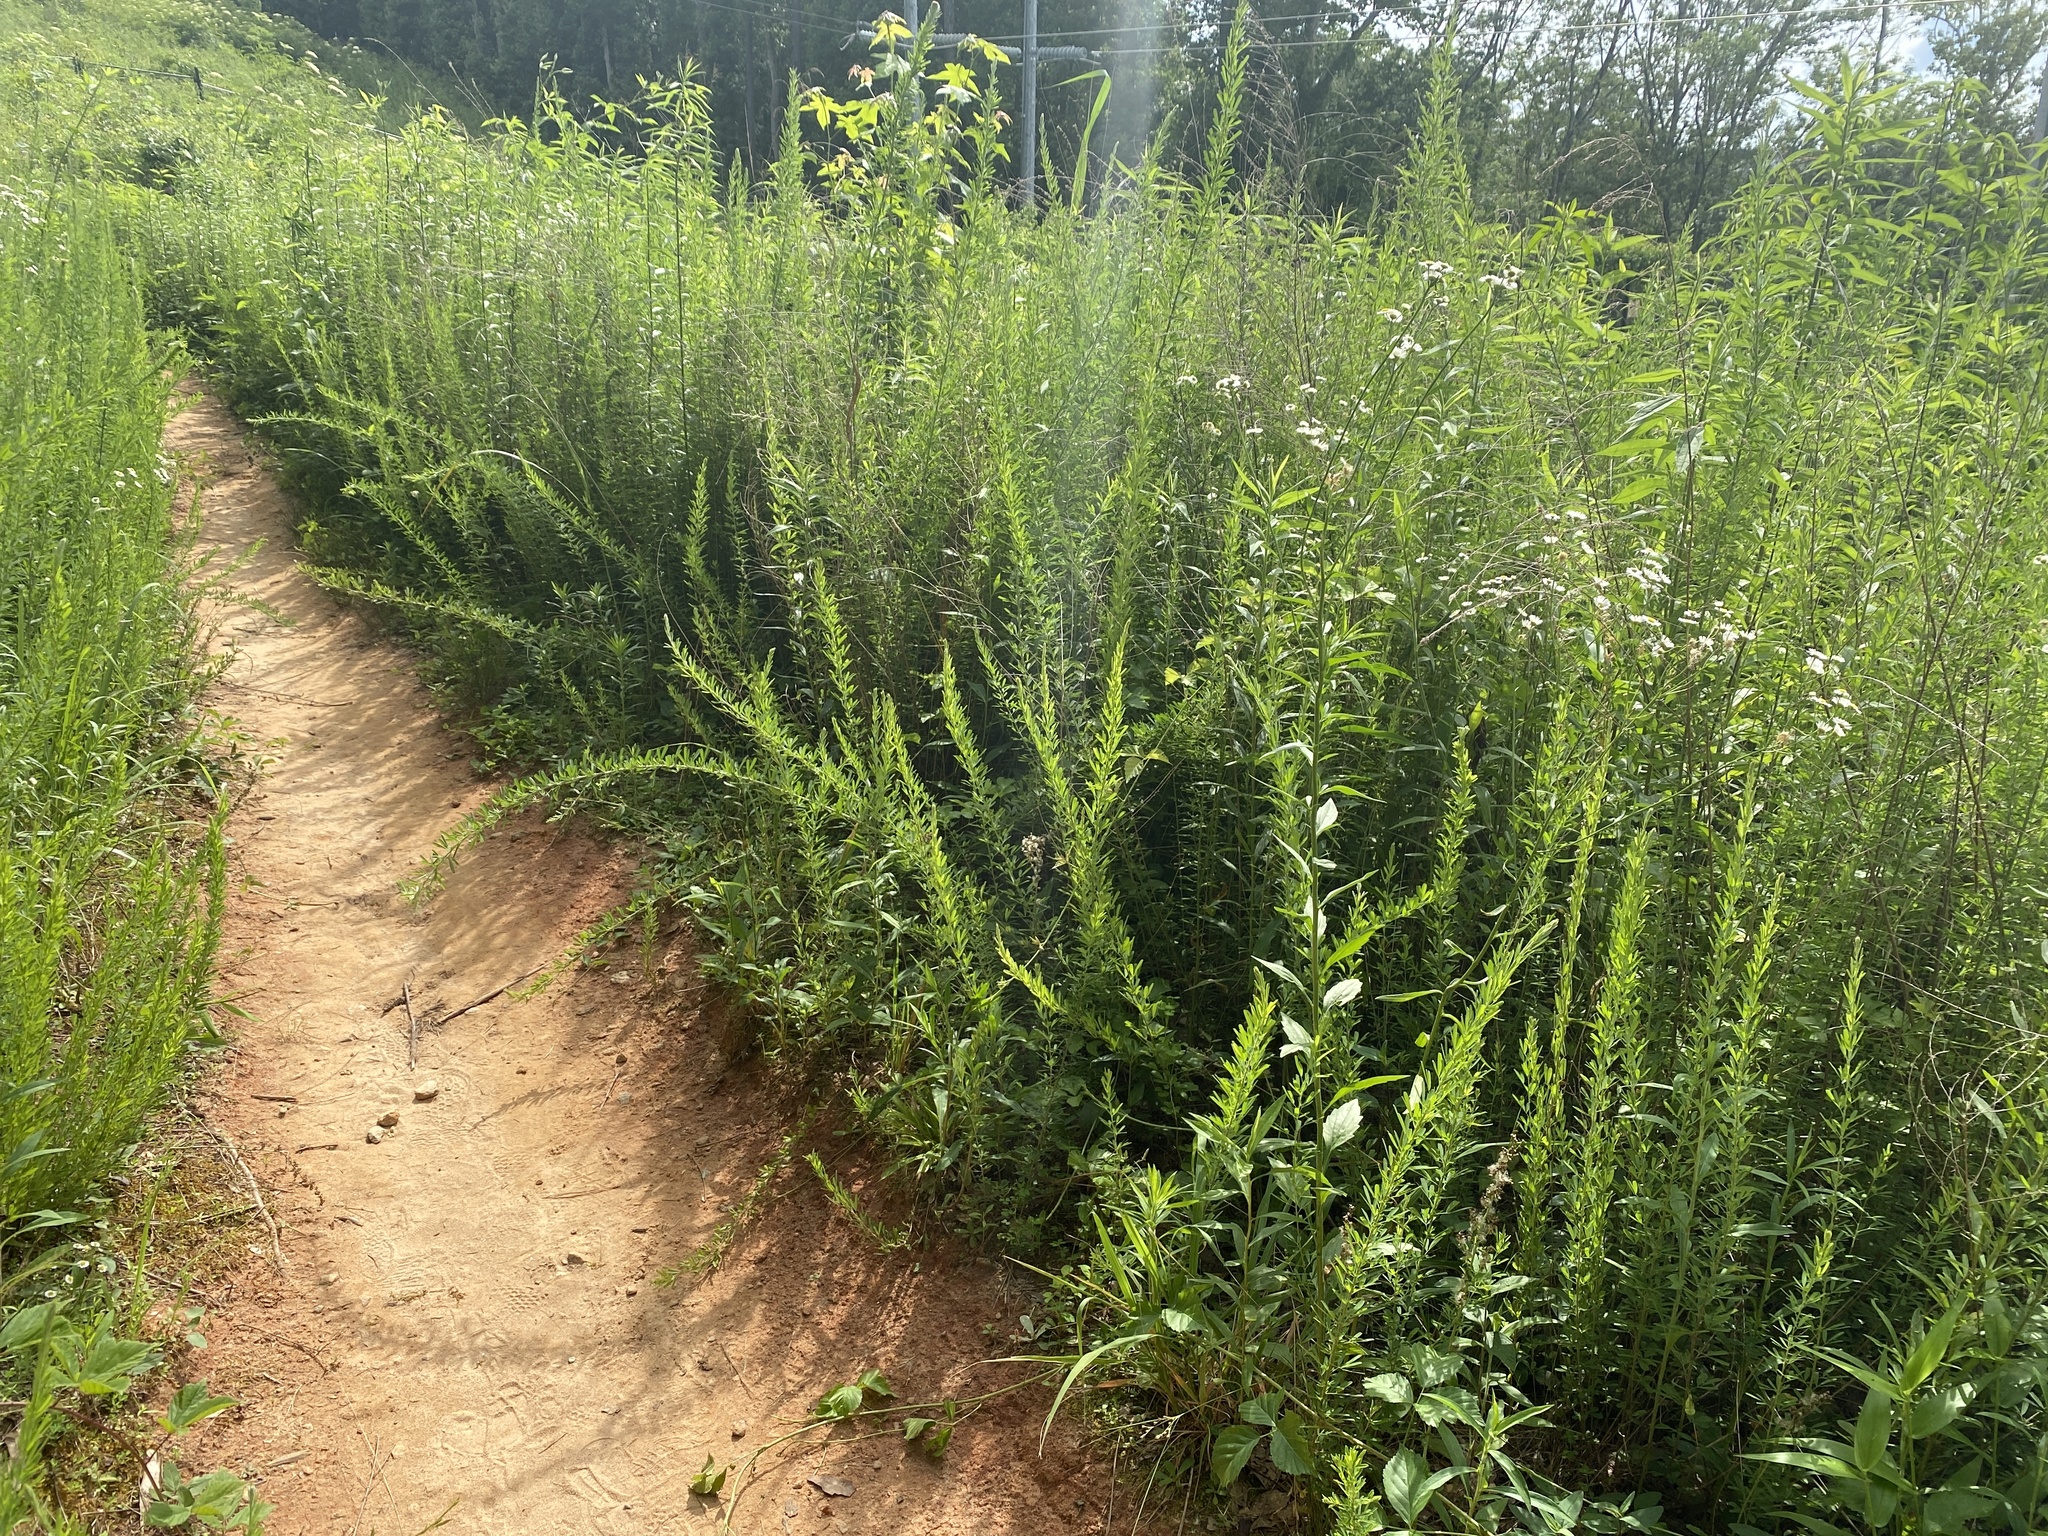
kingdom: Plantae
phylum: Tracheophyta
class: Magnoliopsida
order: Fabales
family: Fabaceae
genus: Lespedeza
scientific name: Lespedeza cuneata
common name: Chinese bush-clover
